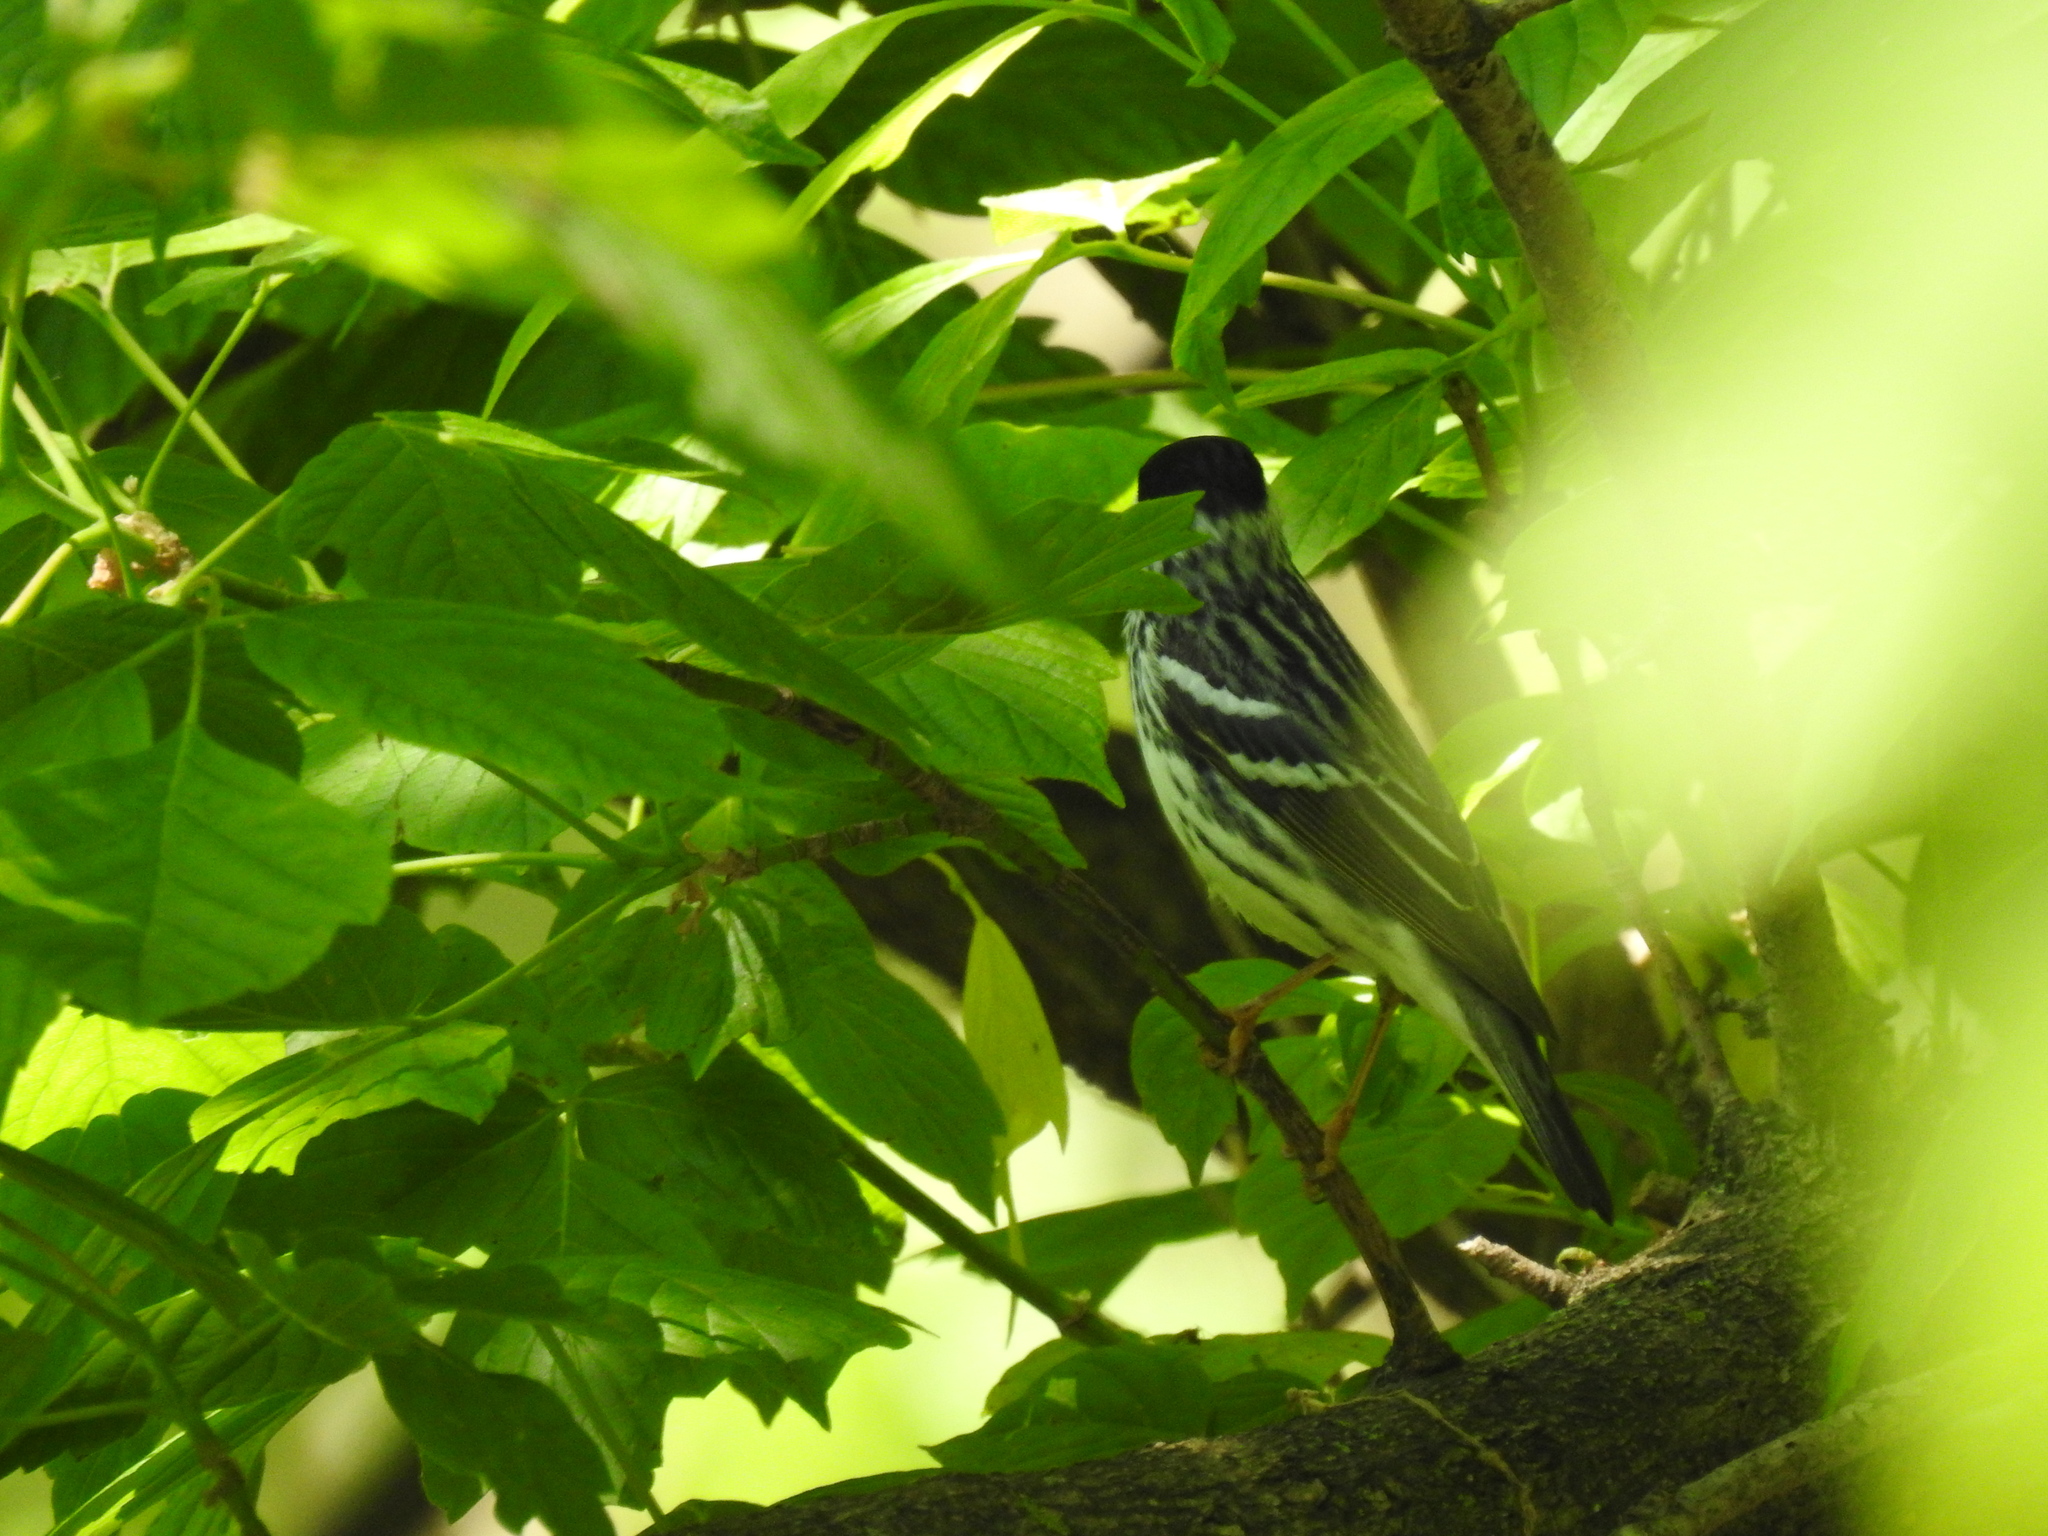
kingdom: Animalia
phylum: Chordata
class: Aves
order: Passeriformes
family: Parulidae
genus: Setophaga
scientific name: Setophaga striata
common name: Blackpoll warbler
